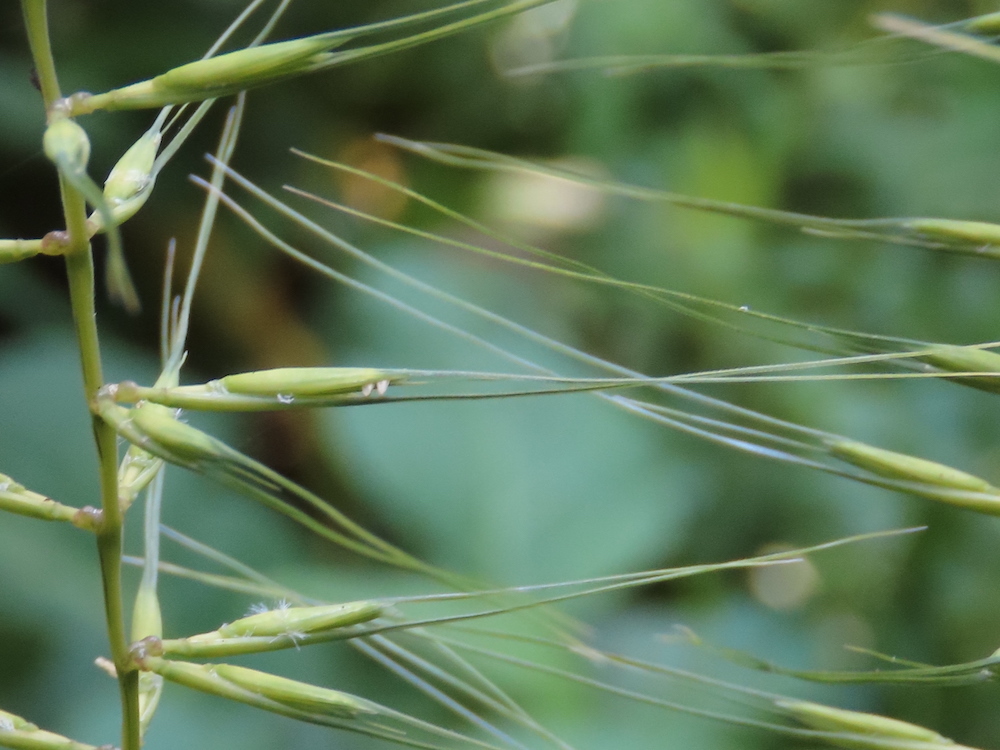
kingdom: Plantae
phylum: Tracheophyta
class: Liliopsida
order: Poales
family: Poaceae
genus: Elymus
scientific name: Elymus hystrix
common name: Bottlebrush grass
